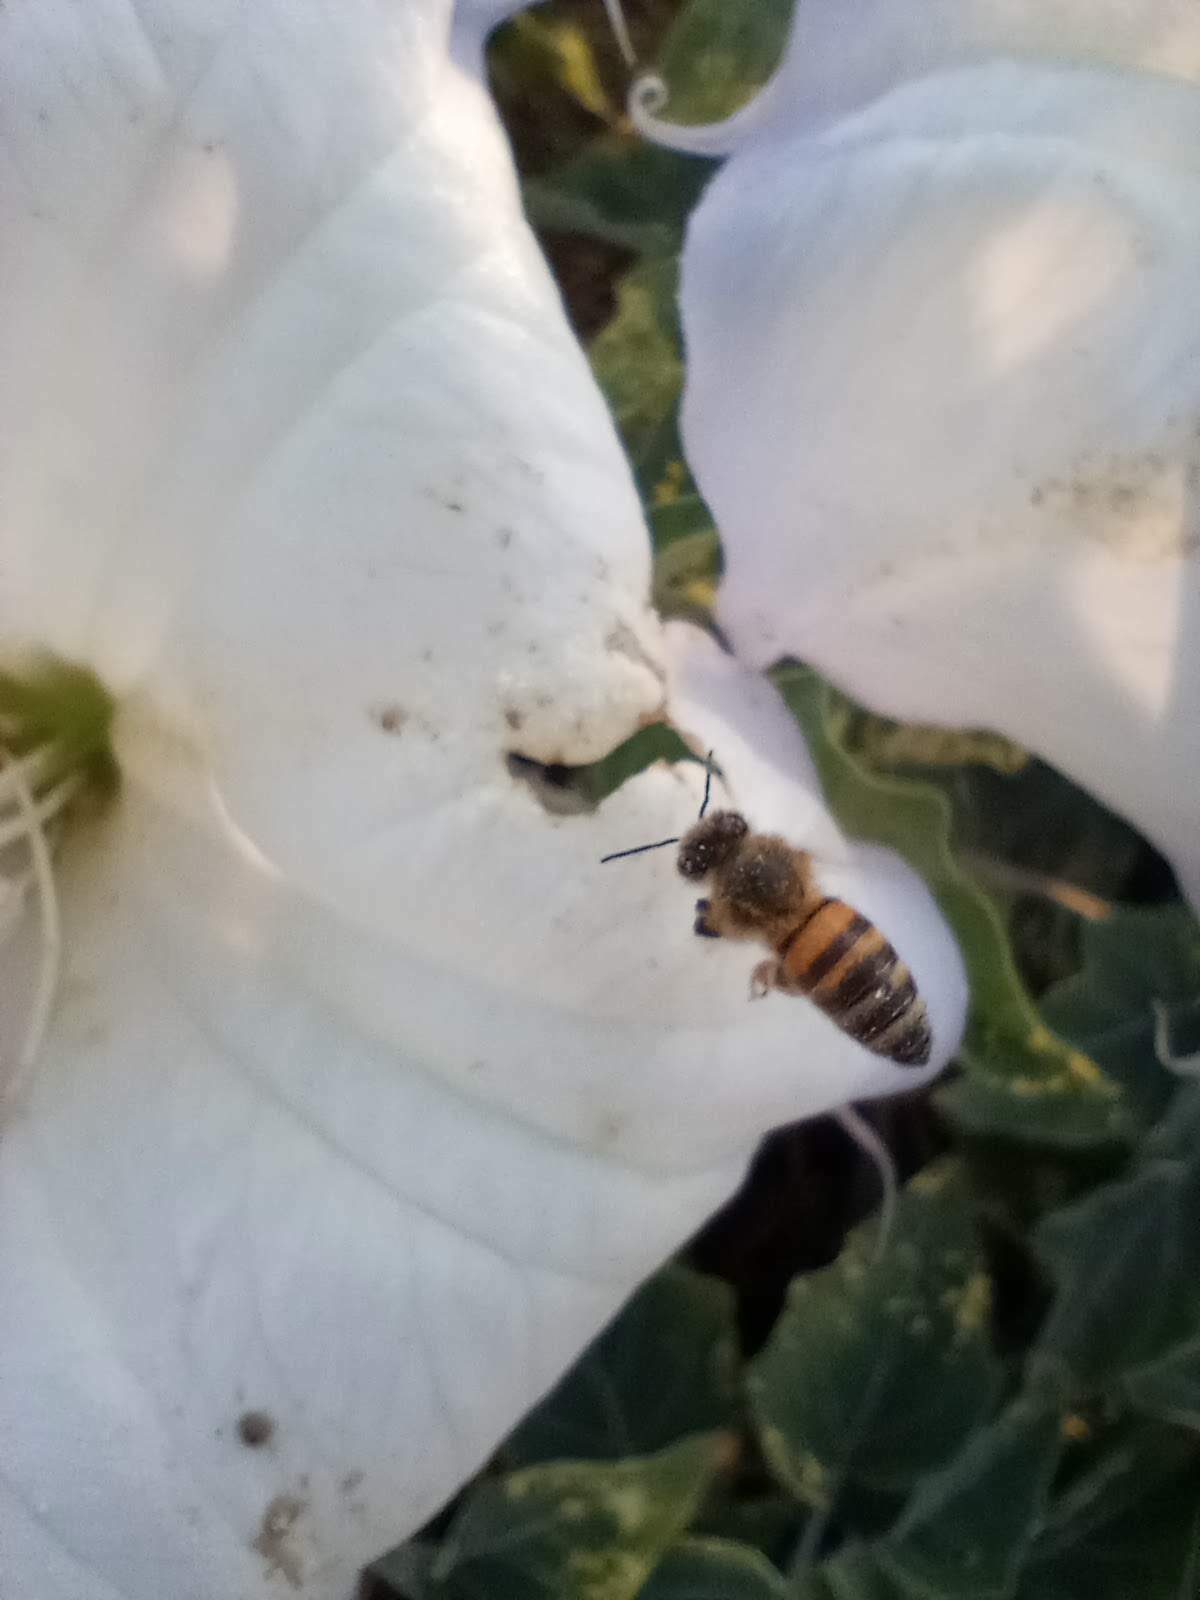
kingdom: Animalia
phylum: Arthropoda
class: Insecta
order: Hymenoptera
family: Apidae
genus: Apis
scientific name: Apis mellifera
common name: Honey bee
